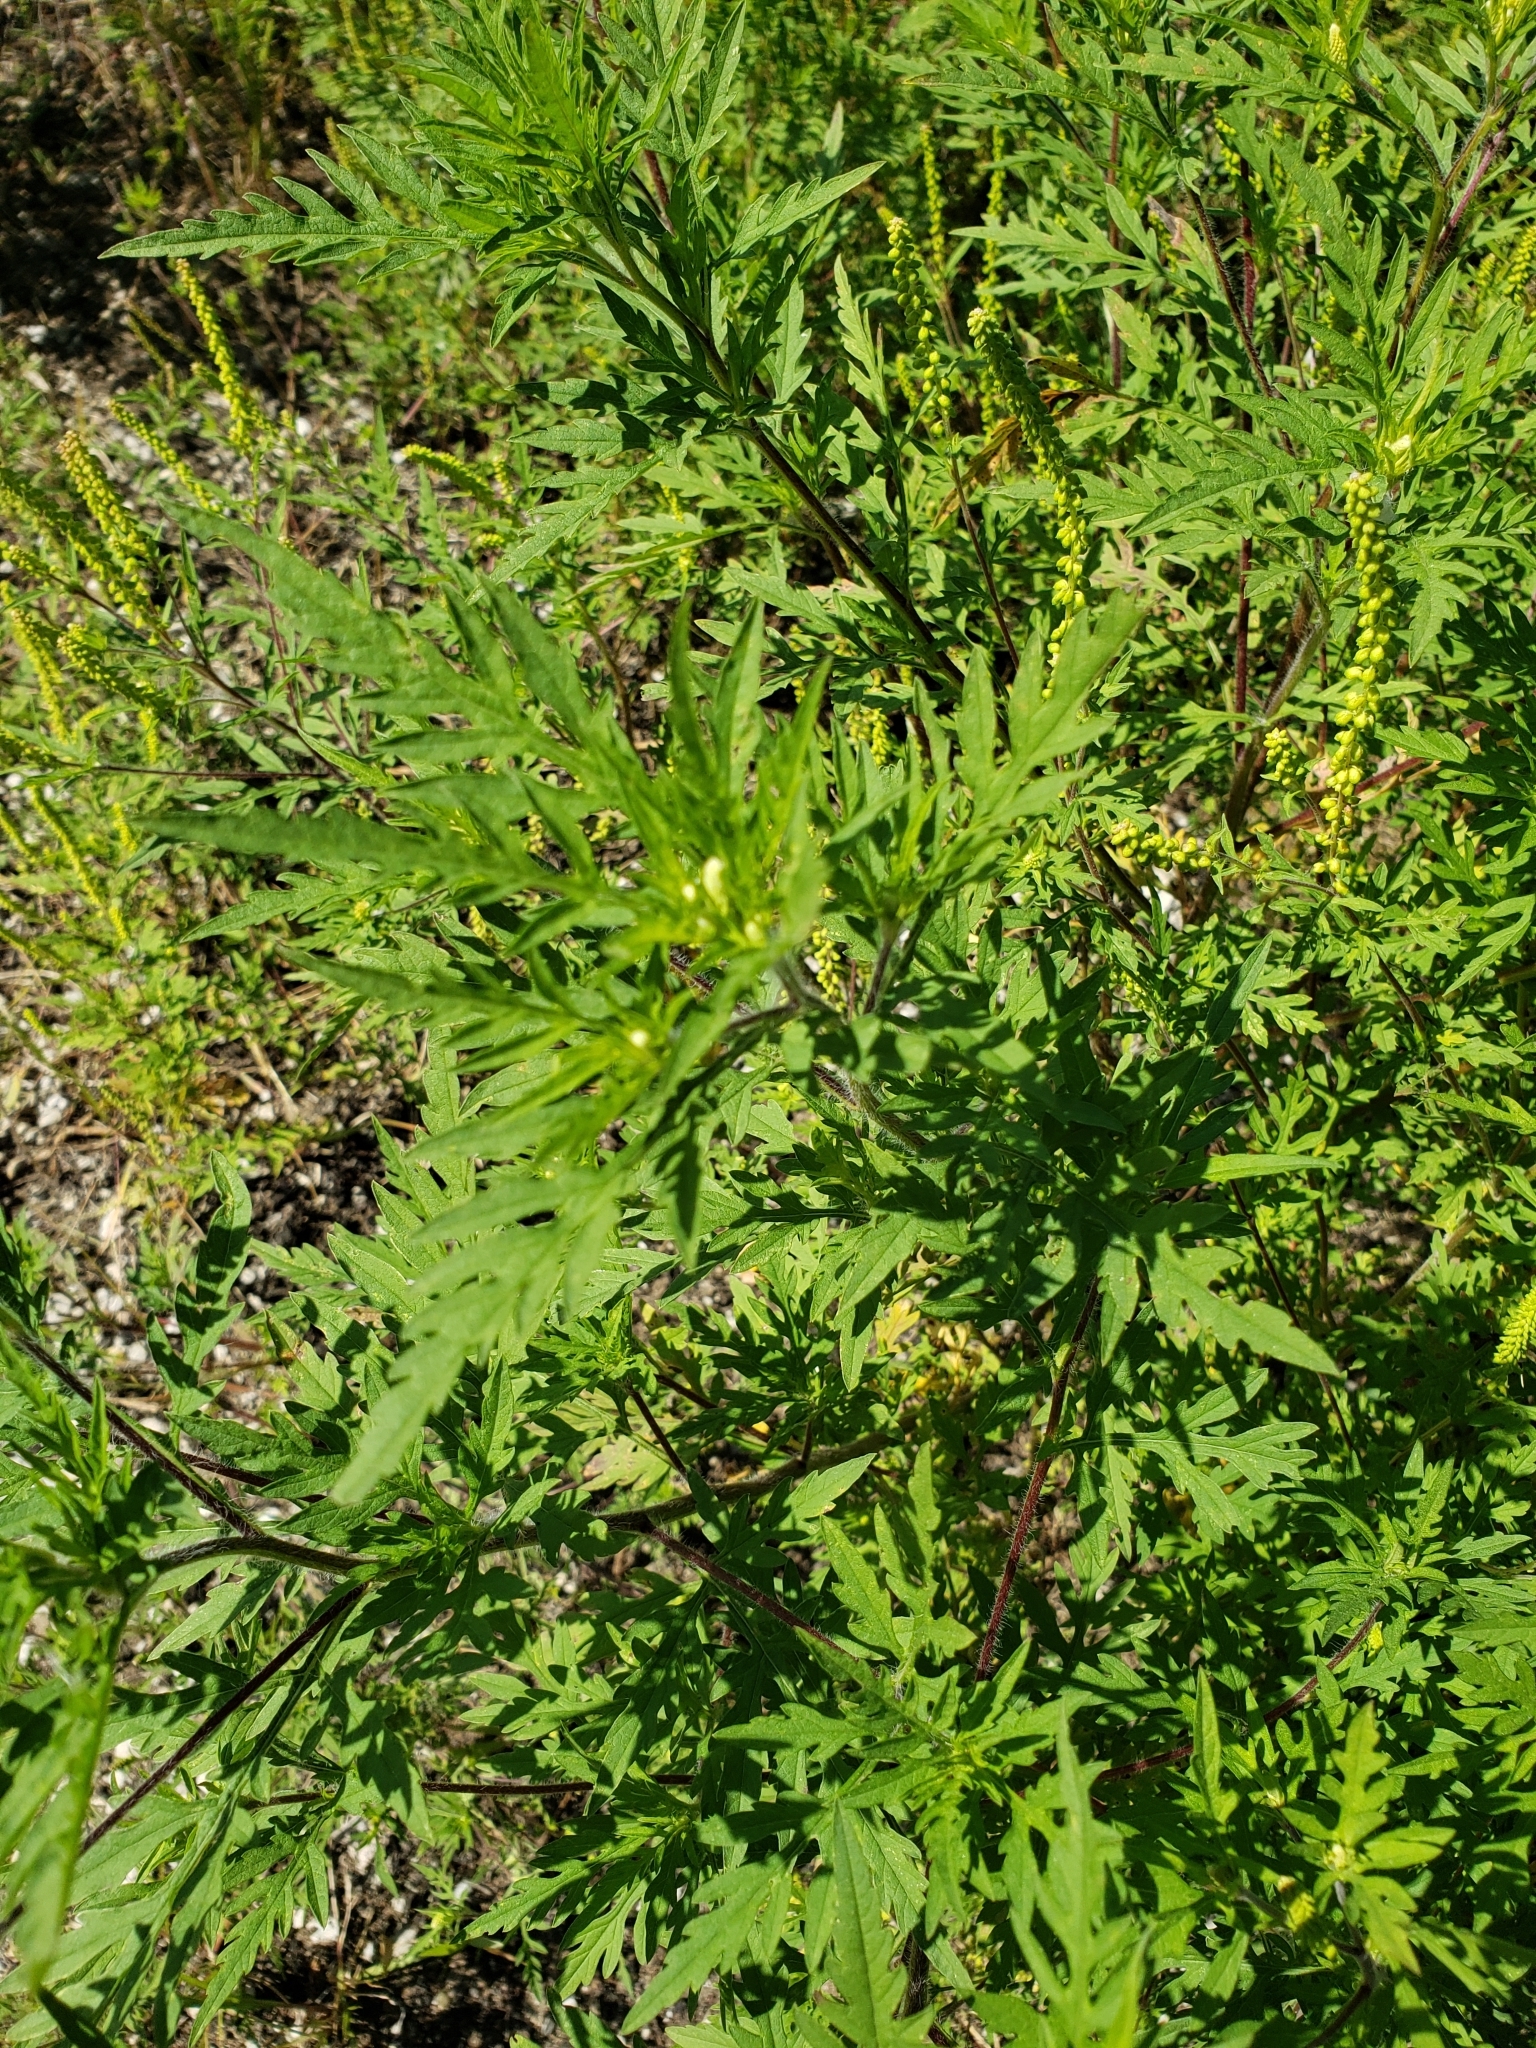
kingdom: Plantae
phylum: Tracheophyta
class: Magnoliopsida
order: Asterales
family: Asteraceae
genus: Ambrosia
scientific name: Ambrosia artemisiifolia
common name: Annual ragweed
